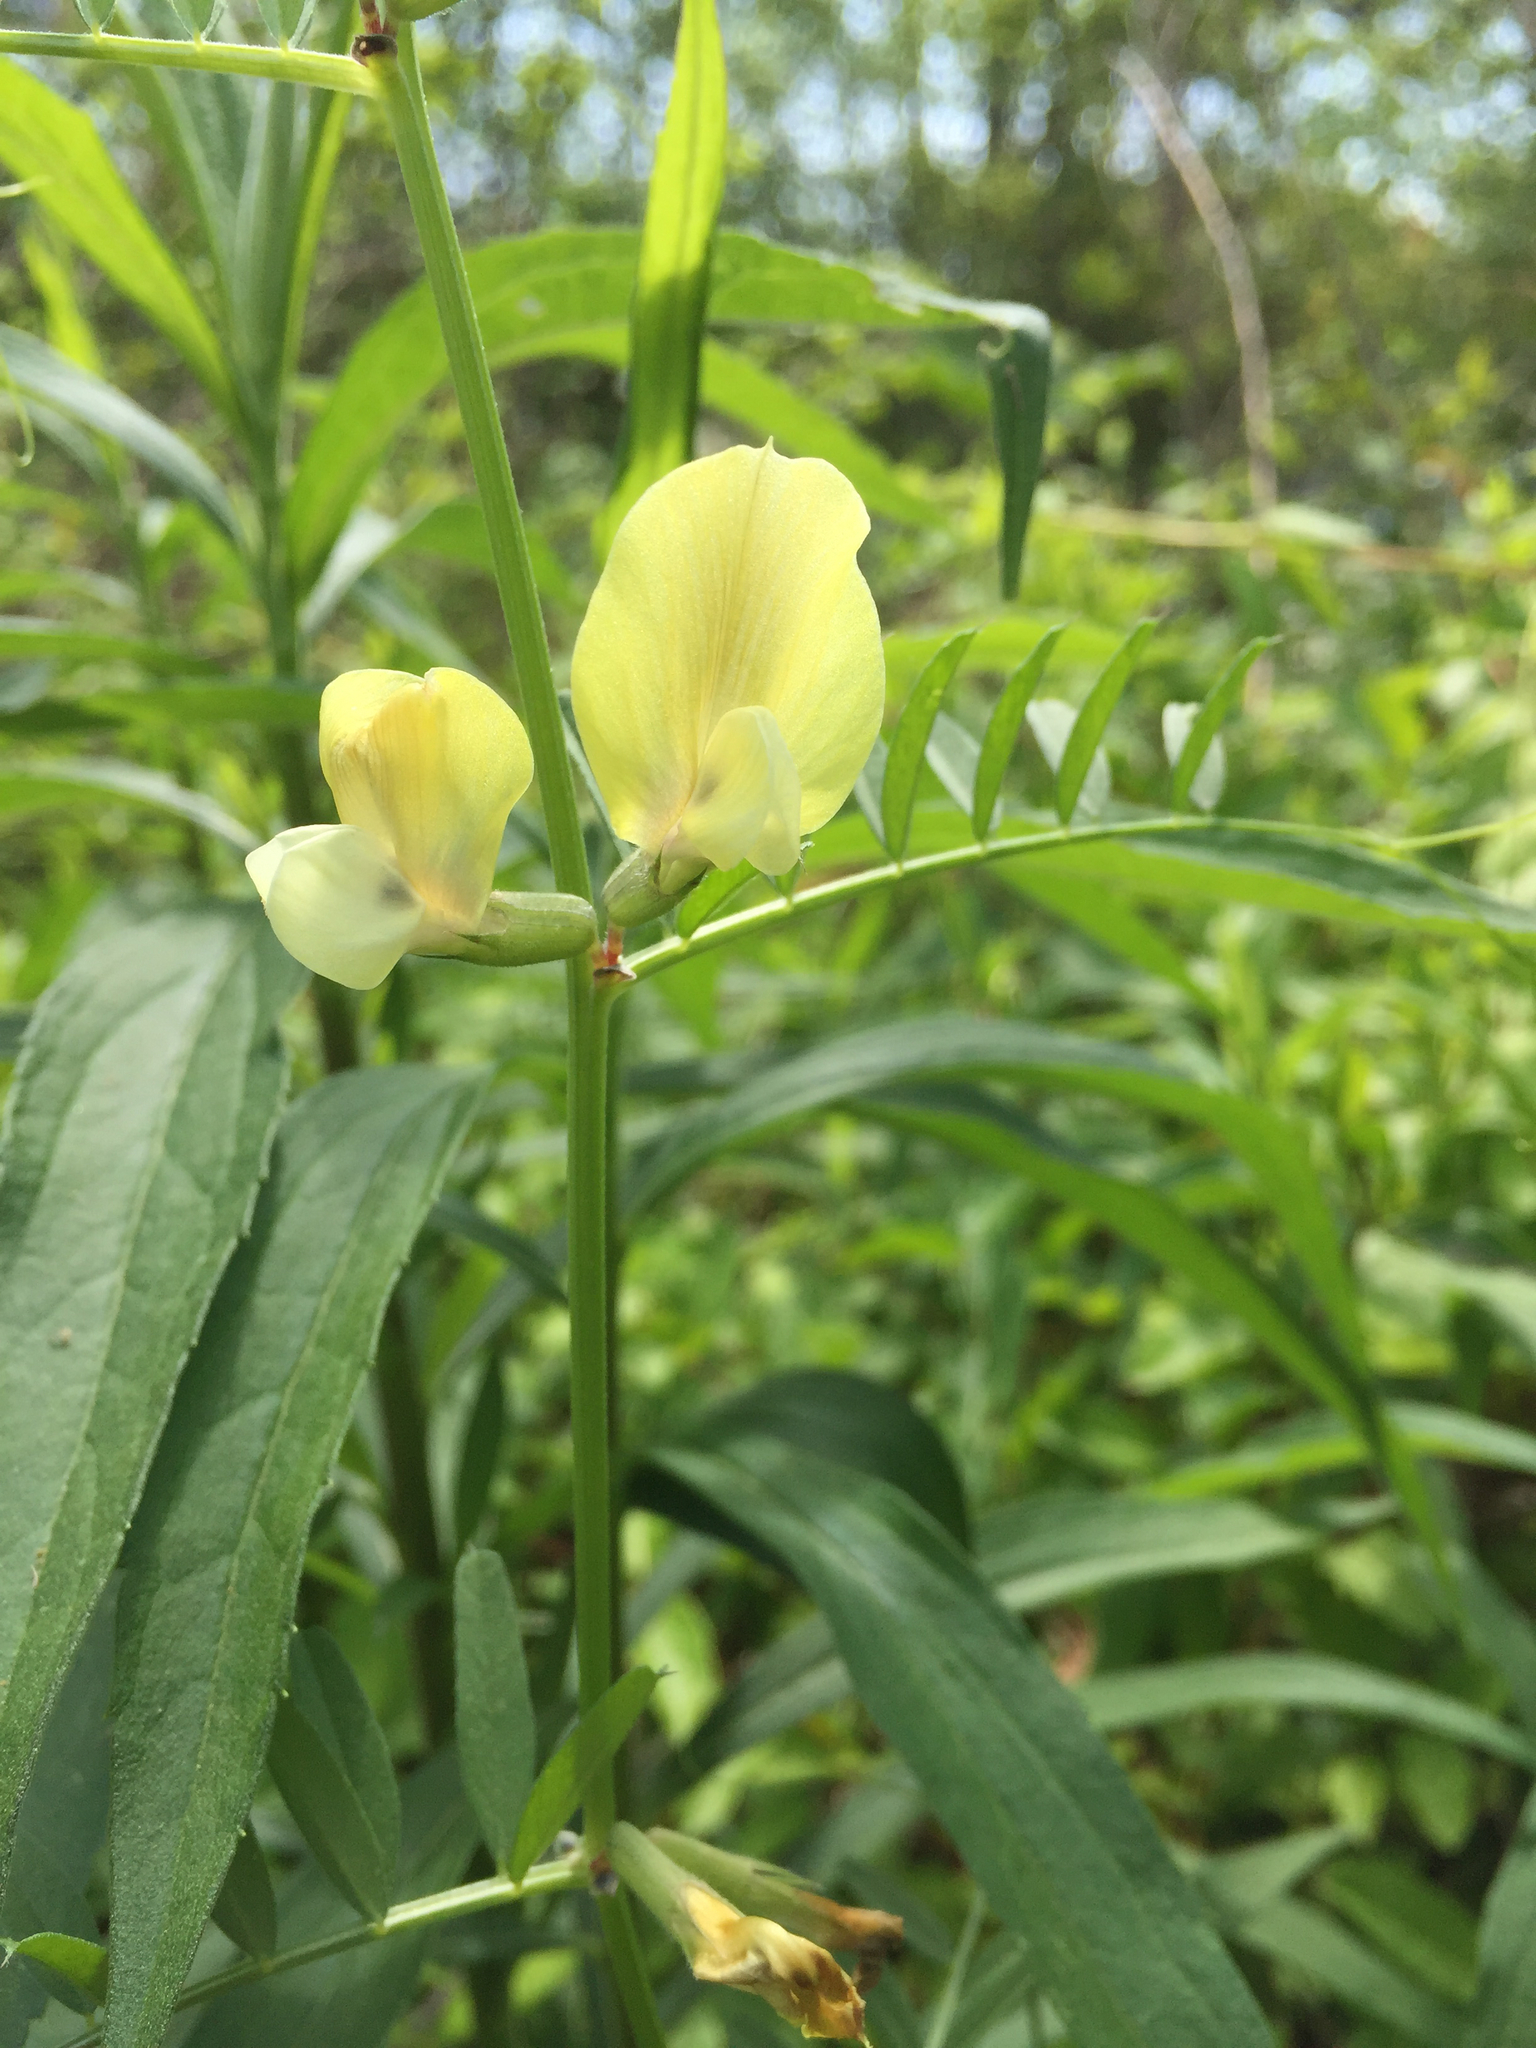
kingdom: Plantae
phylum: Tracheophyta
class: Magnoliopsida
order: Fabales
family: Fabaceae
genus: Vicia
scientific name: Vicia grandiflora
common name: Large yellow vetch
